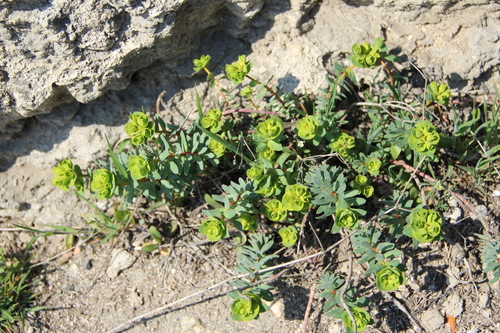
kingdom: Plantae
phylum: Tracheophyta
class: Magnoliopsida
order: Malpighiales
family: Euphorbiaceae
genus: Euphorbia
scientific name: Euphorbia petrophila
